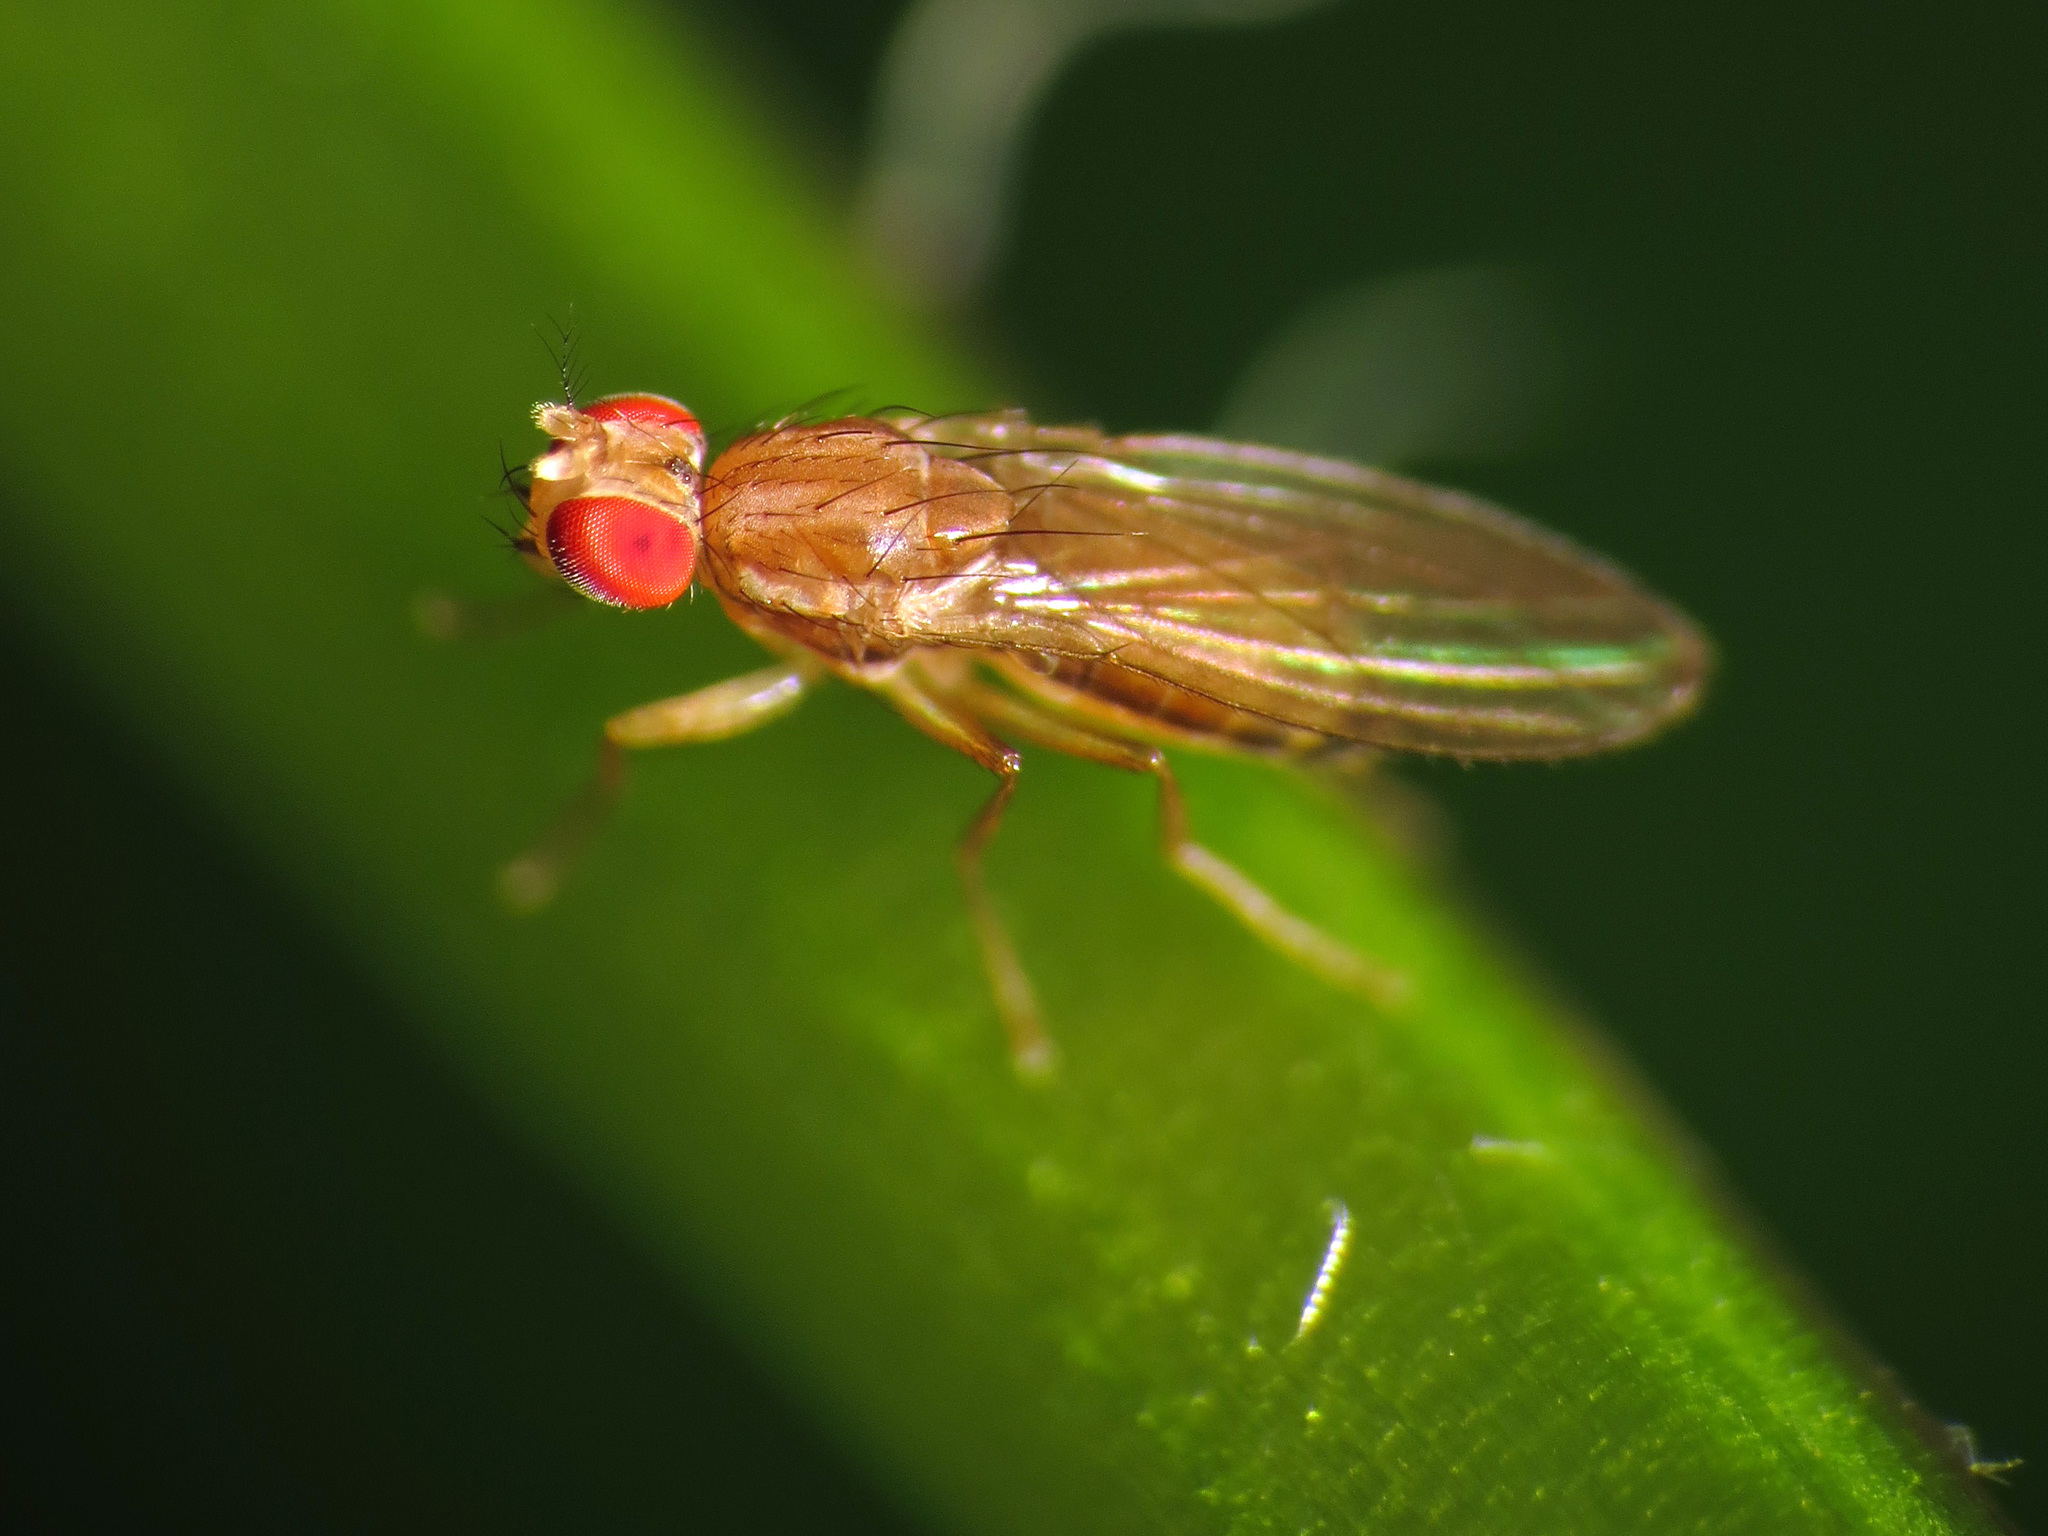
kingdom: Animalia
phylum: Arthropoda
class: Insecta
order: Diptera
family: Drosophilidae
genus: Scaptomyza
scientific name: Scaptomyza wheeleri
